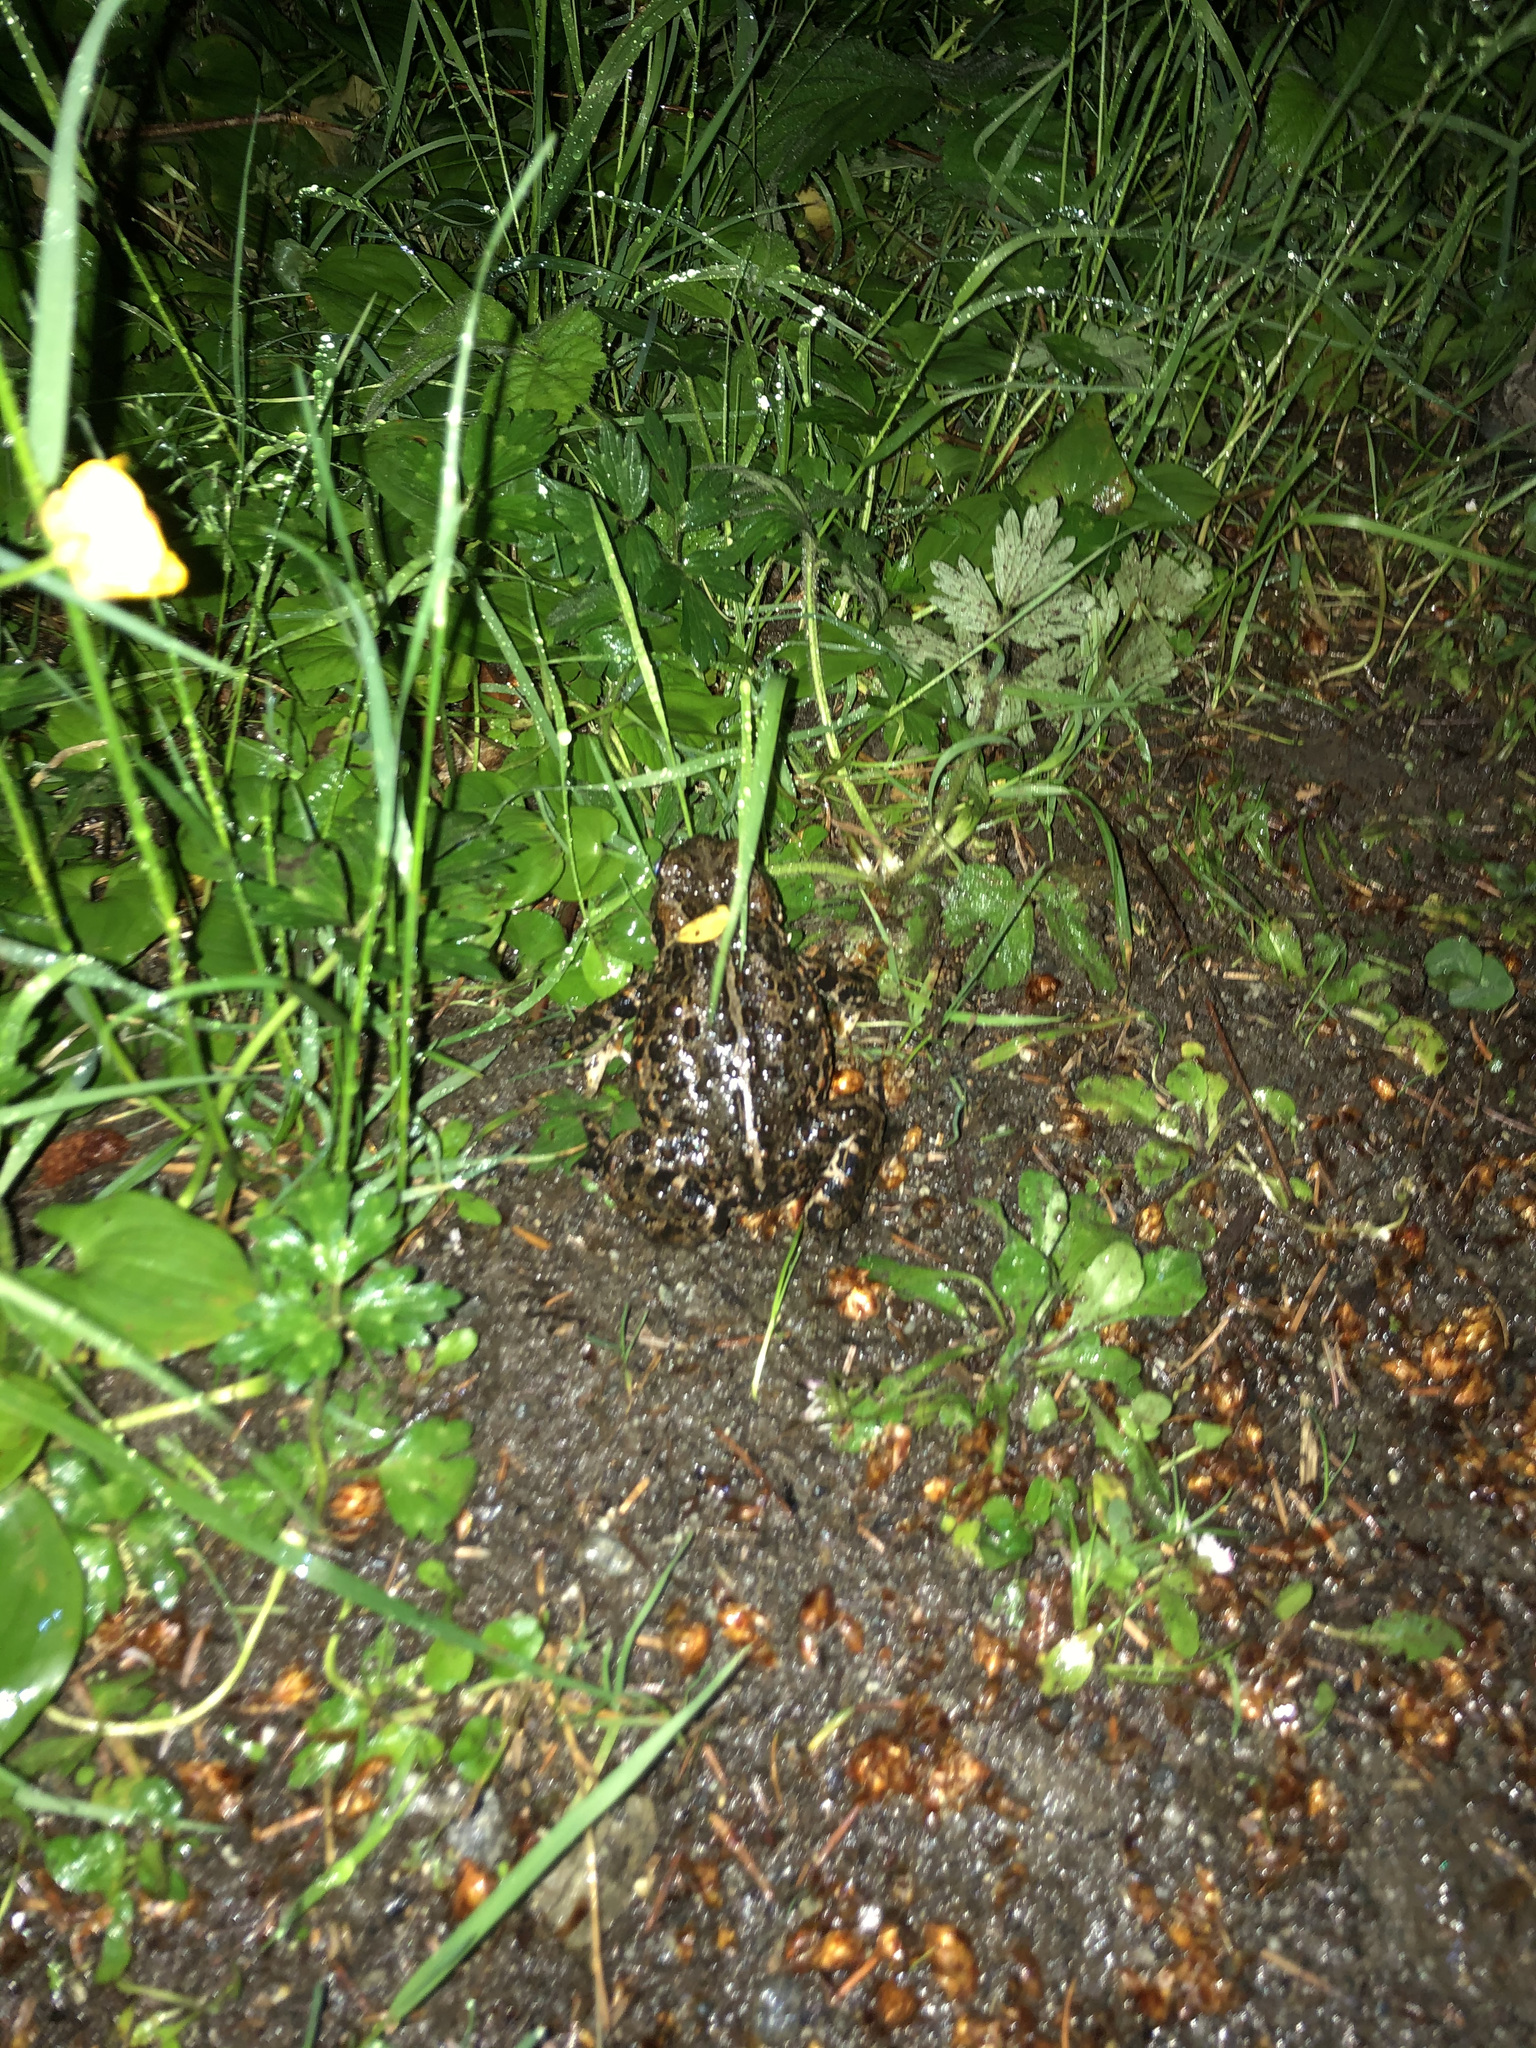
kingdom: Animalia
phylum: Chordata
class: Amphibia
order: Anura
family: Bufonidae
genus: Anaxyrus
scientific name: Anaxyrus boreas
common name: Western toad
